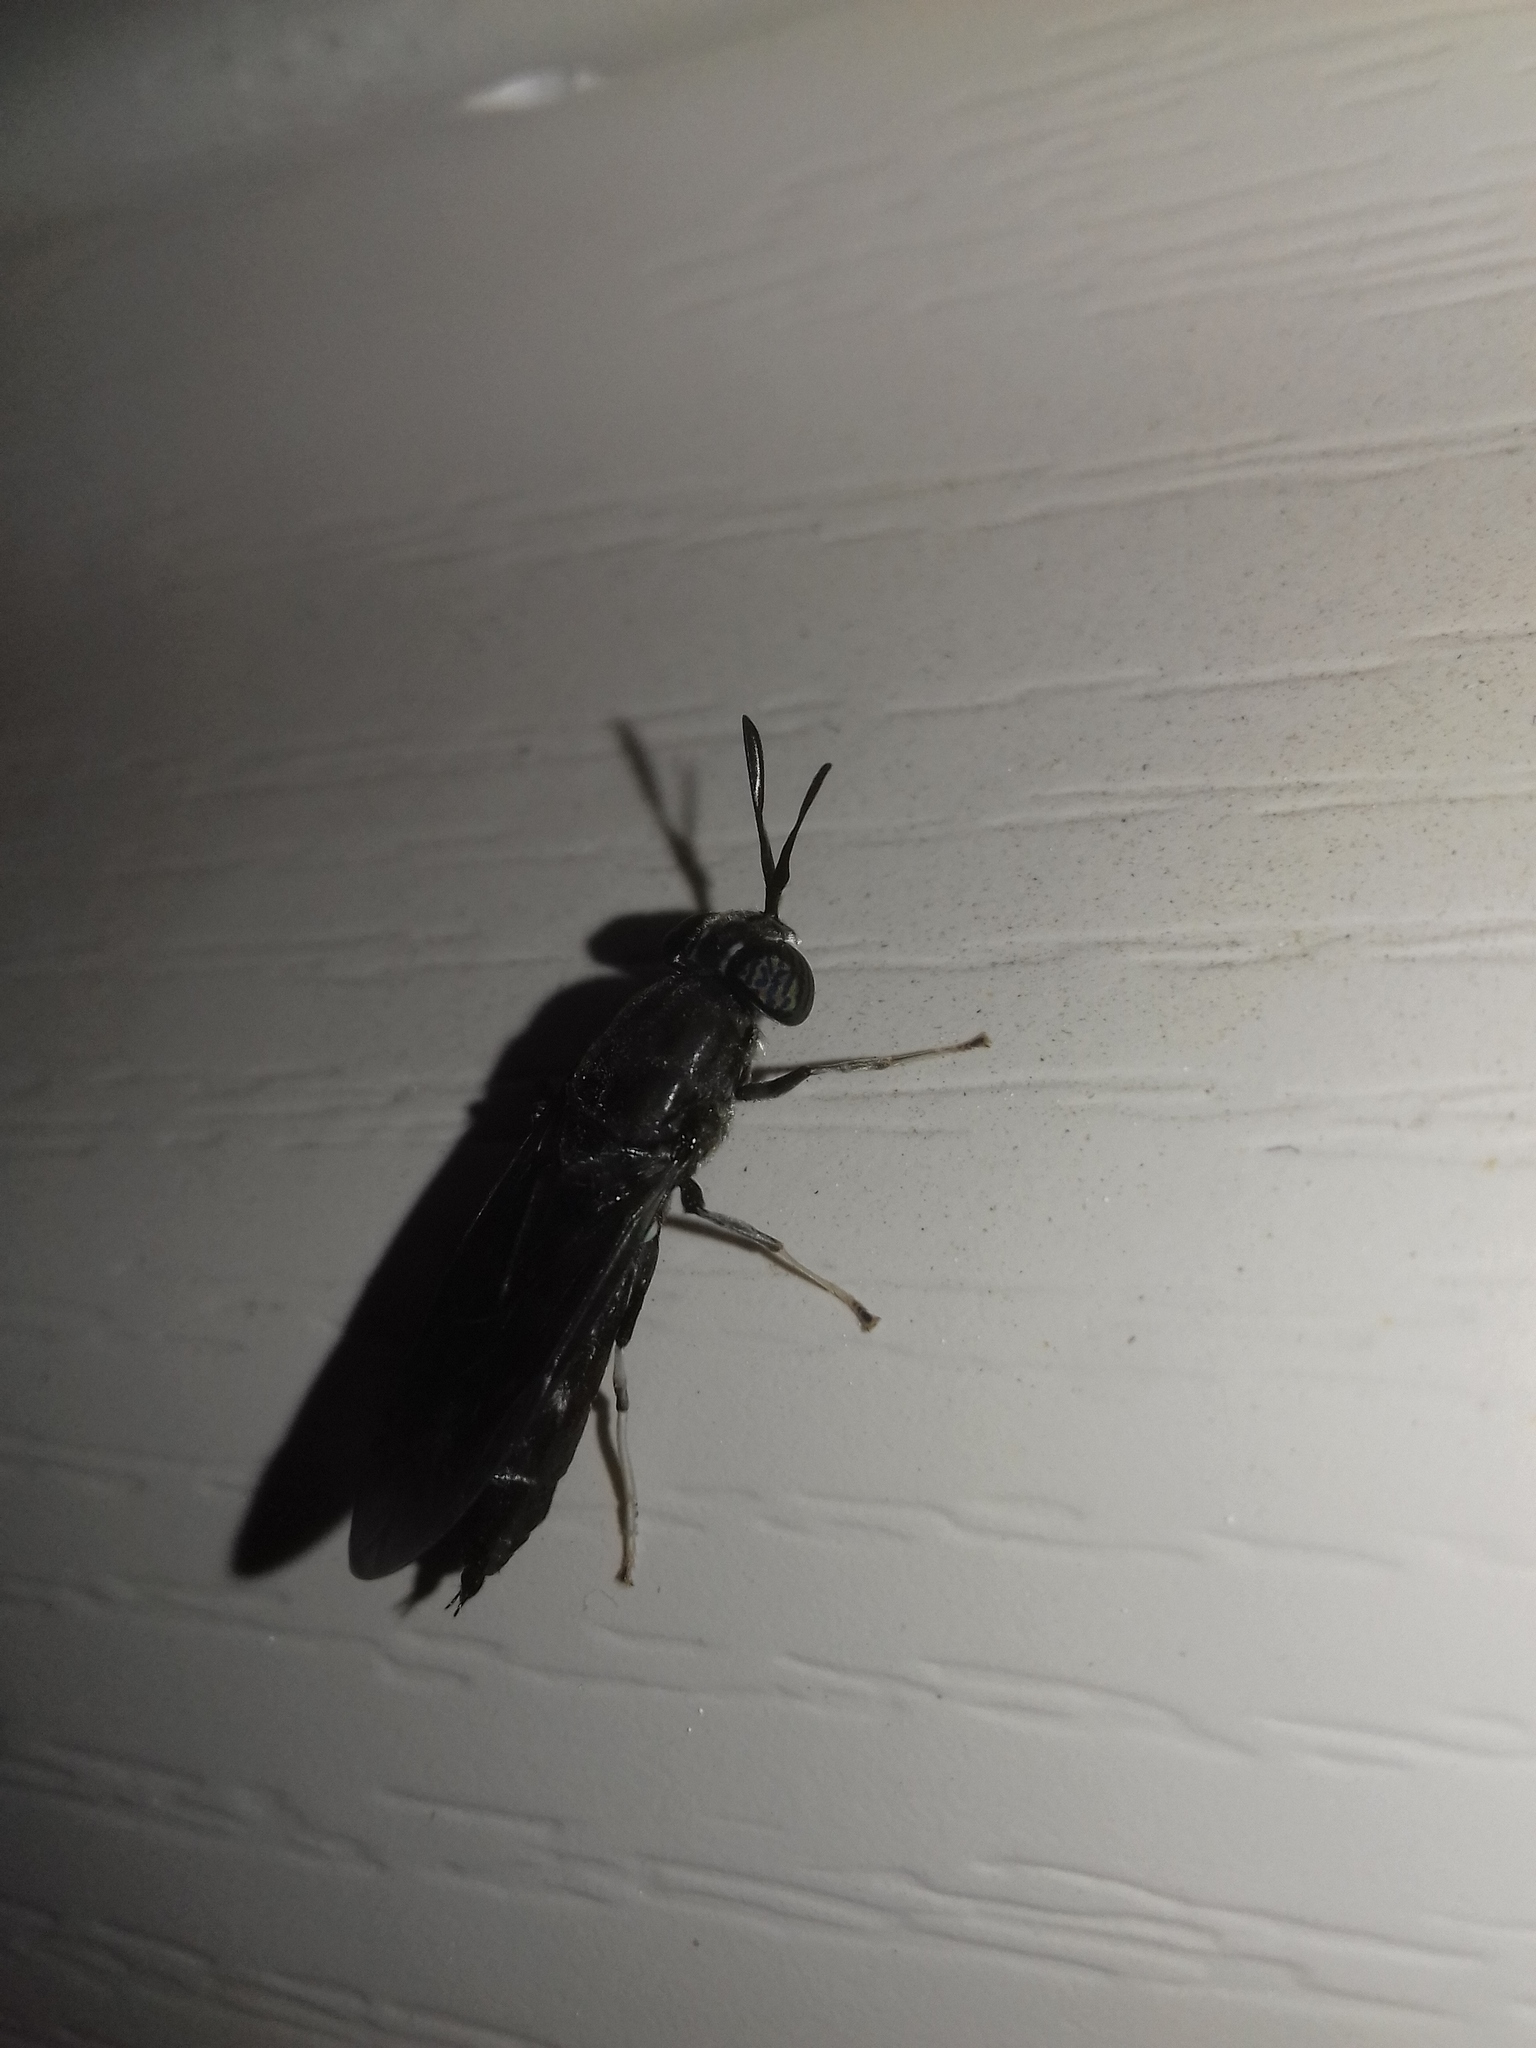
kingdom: Animalia
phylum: Arthropoda
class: Insecta
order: Diptera
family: Stratiomyidae
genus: Hermetia
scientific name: Hermetia illucens
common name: Black soldier fly
